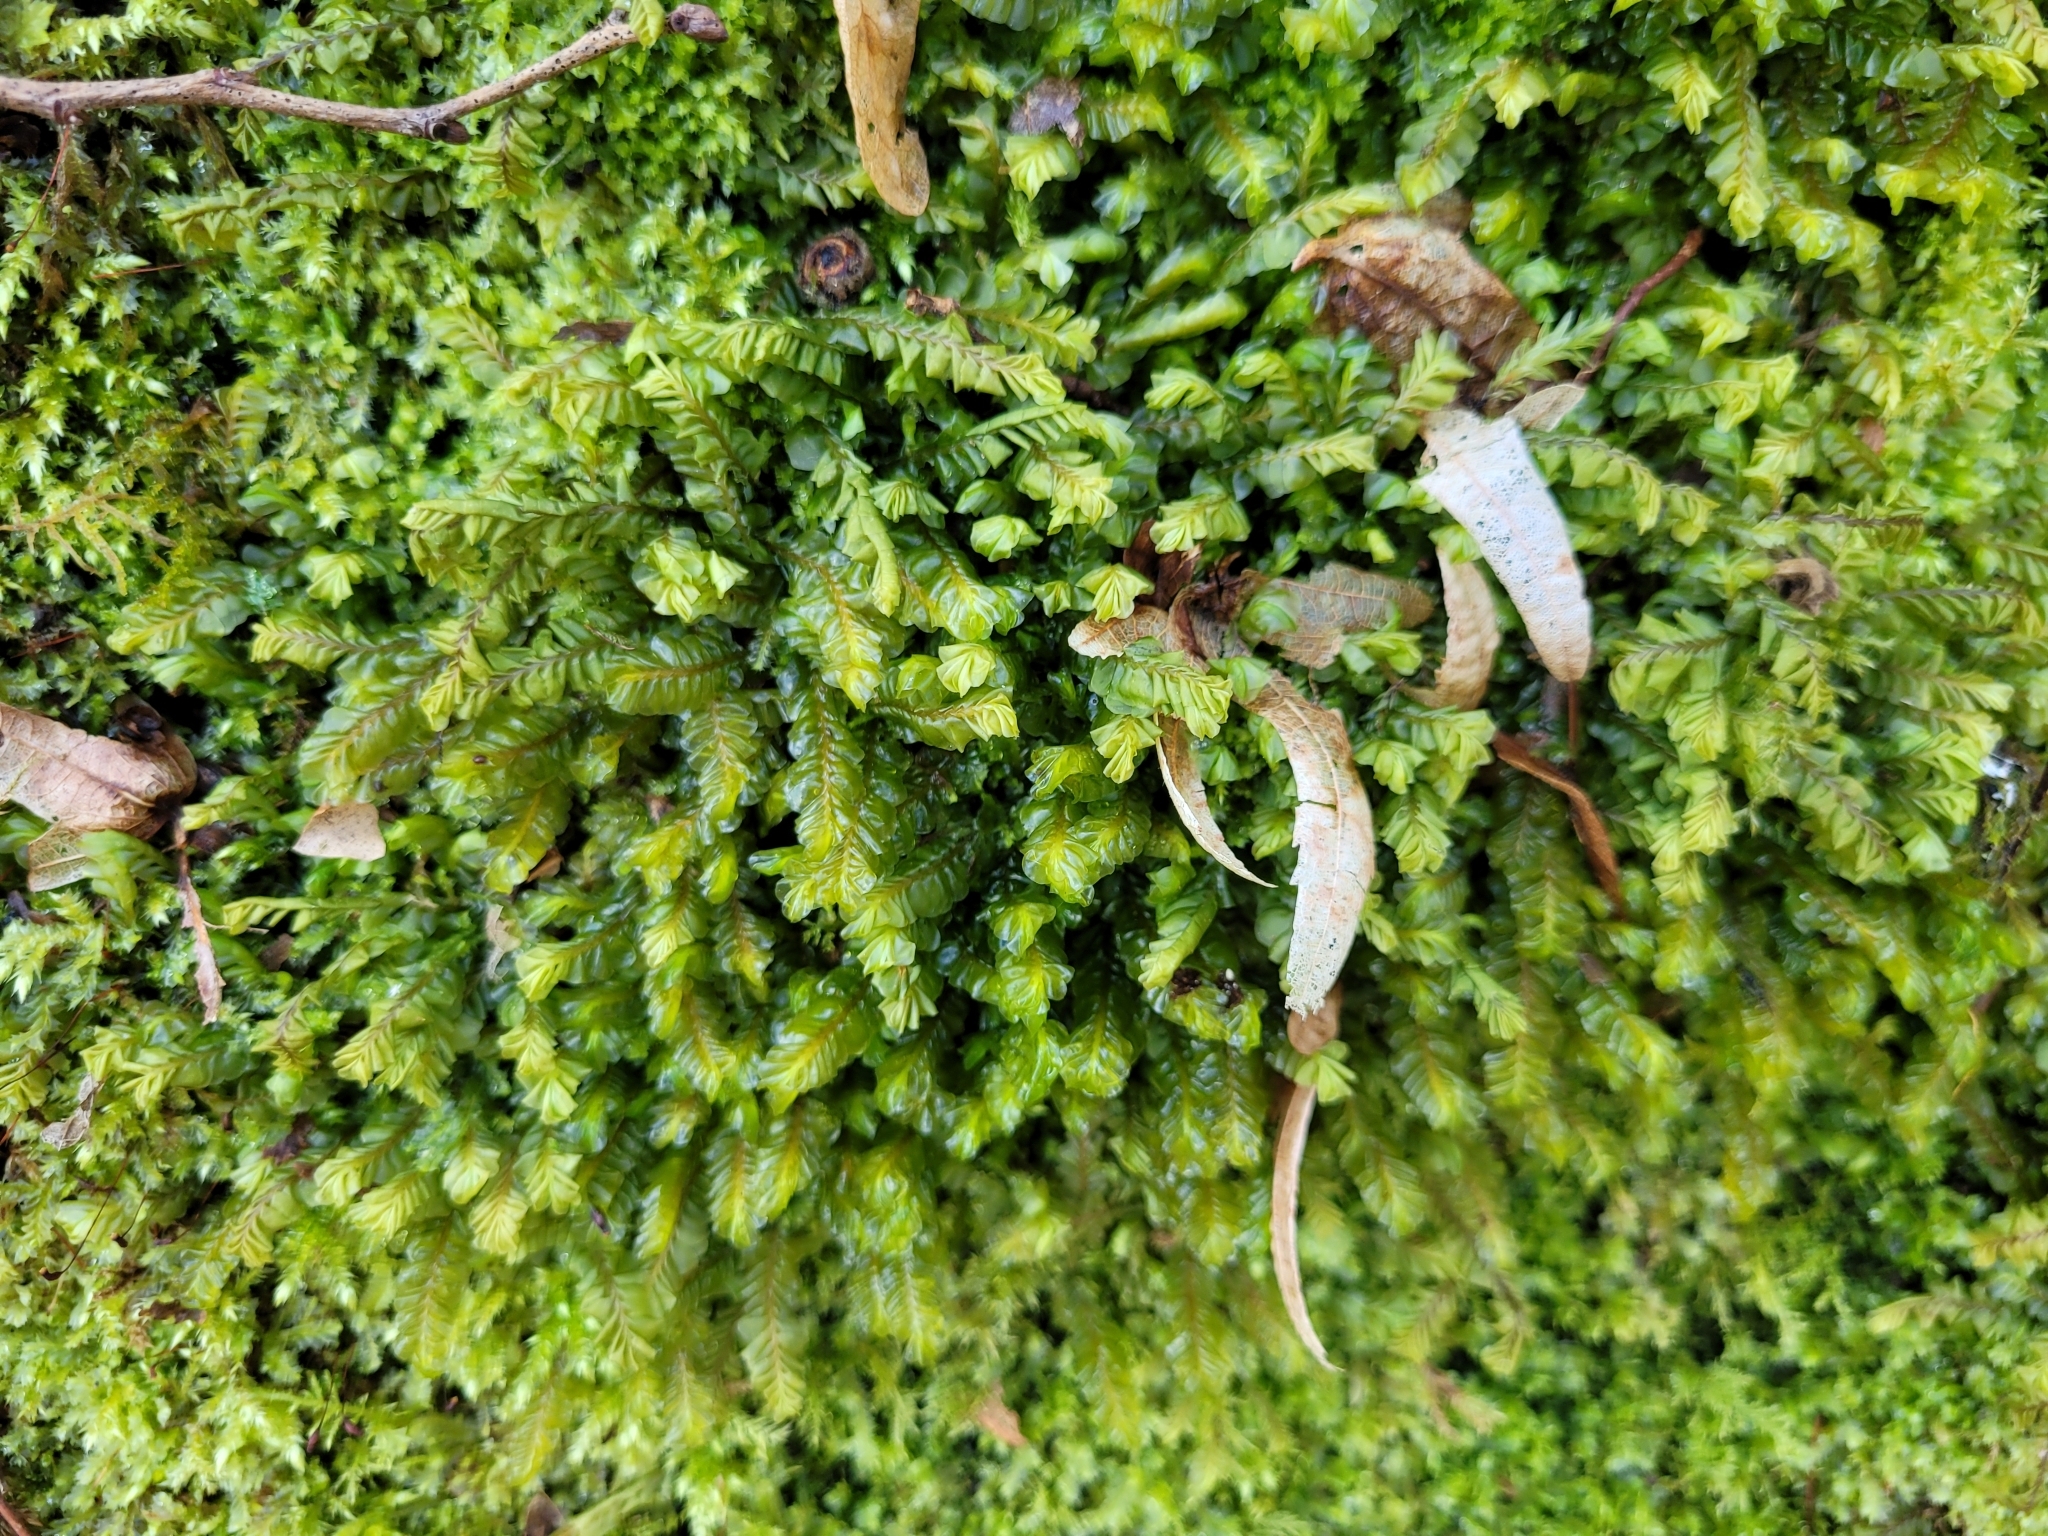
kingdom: Plantae
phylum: Marchantiophyta
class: Jungermanniopsida
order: Jungermanniales
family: Plagiochilaceae
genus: Plagiochila
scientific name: Plagiochila asplenioides
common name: Greater featherwort
